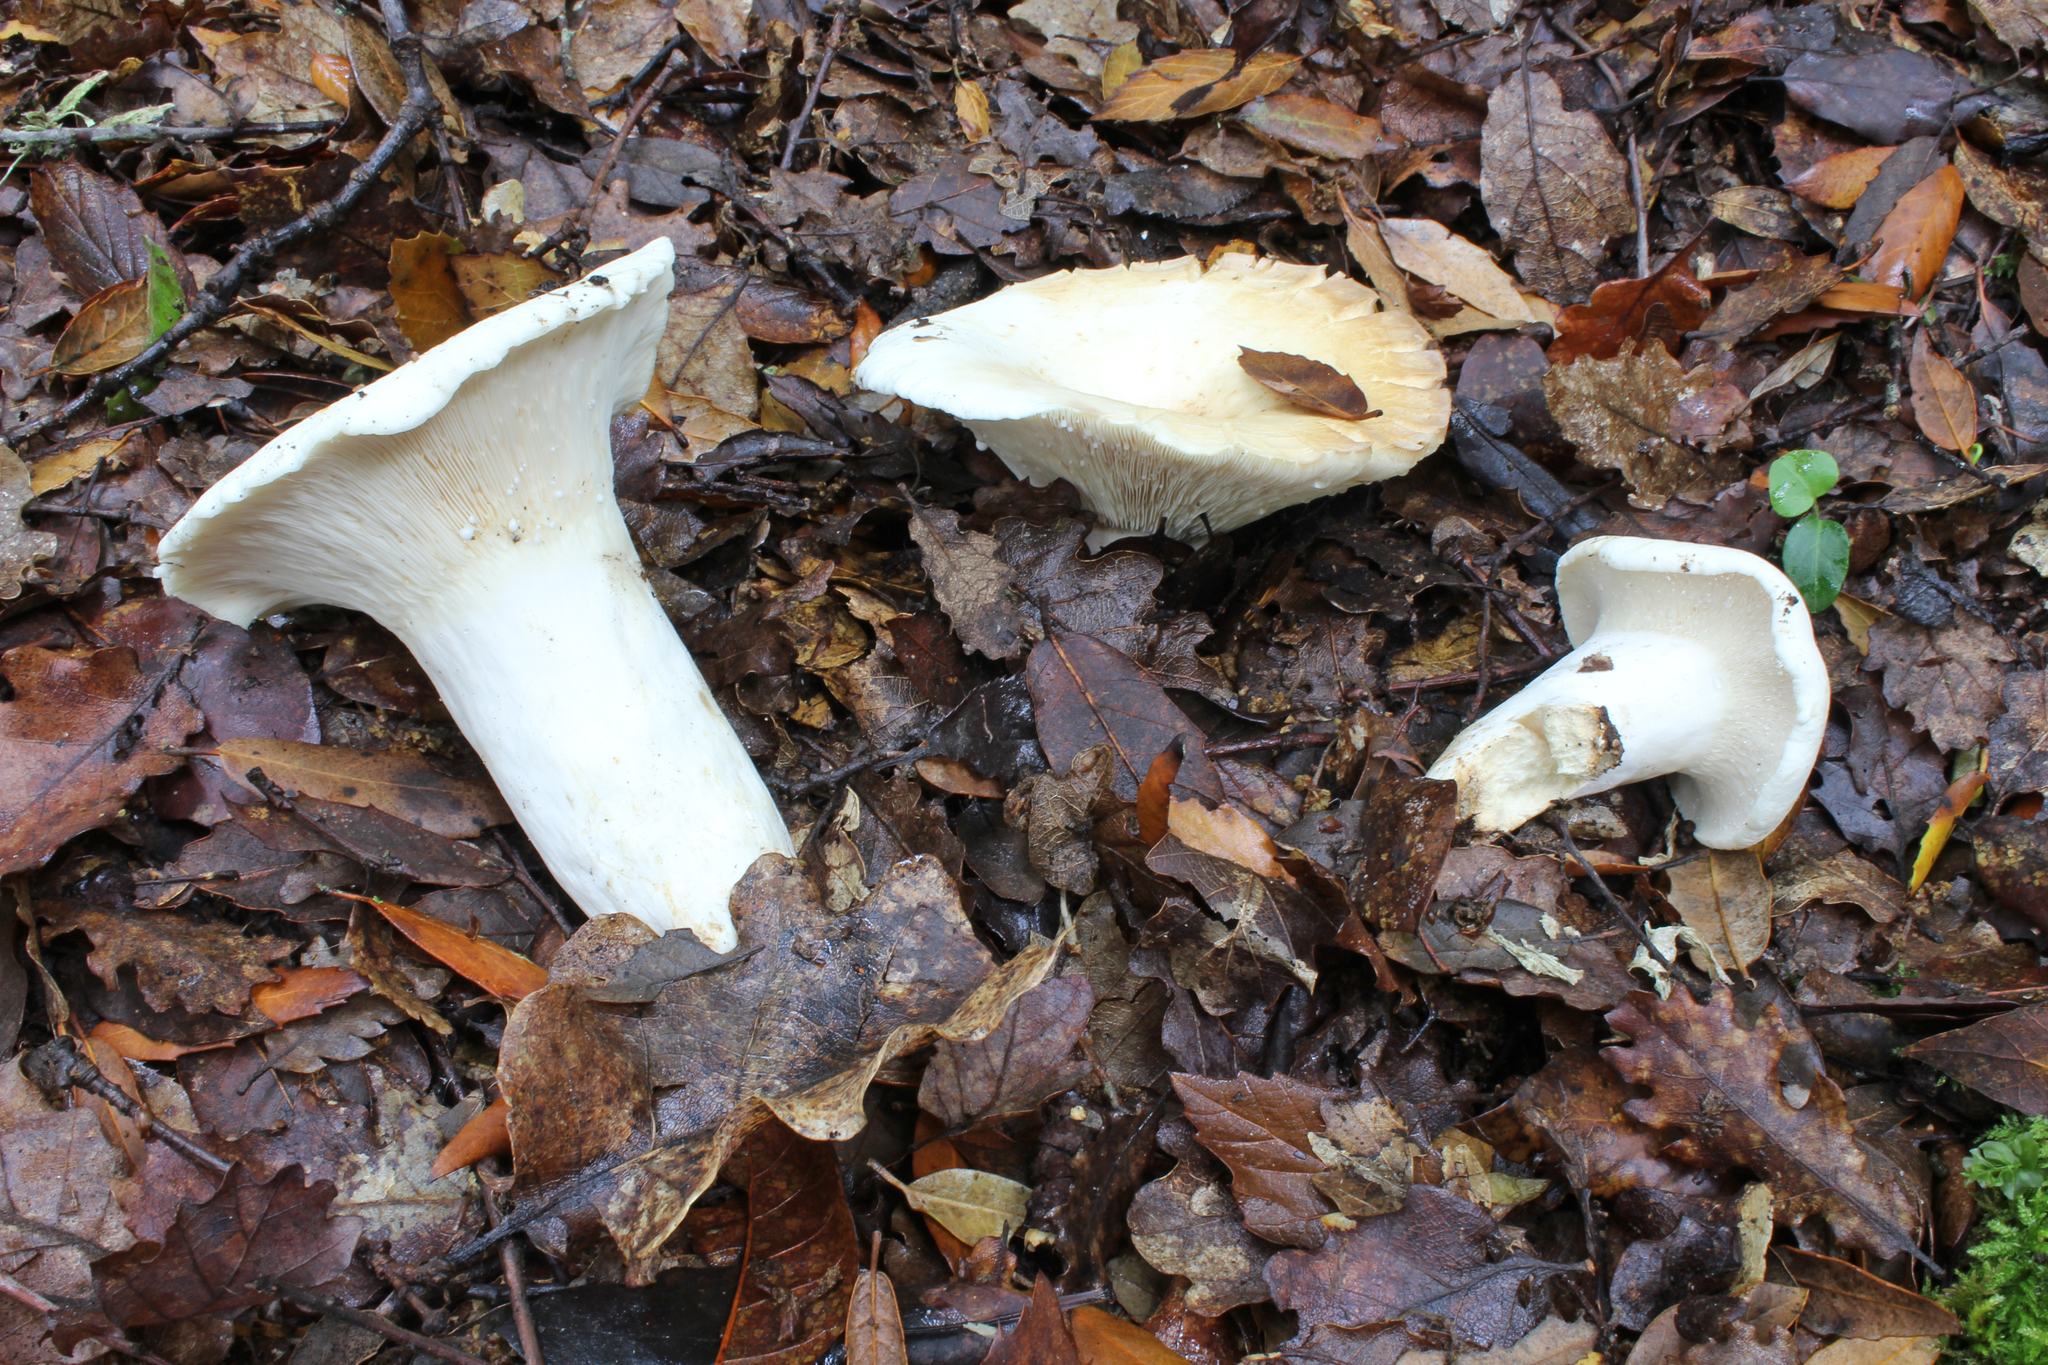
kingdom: Fungi
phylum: Basidiomycota
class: Agaricomycetes
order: Russulales
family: Russulaceae
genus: Lactifluus
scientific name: Lactifluus piperatus
